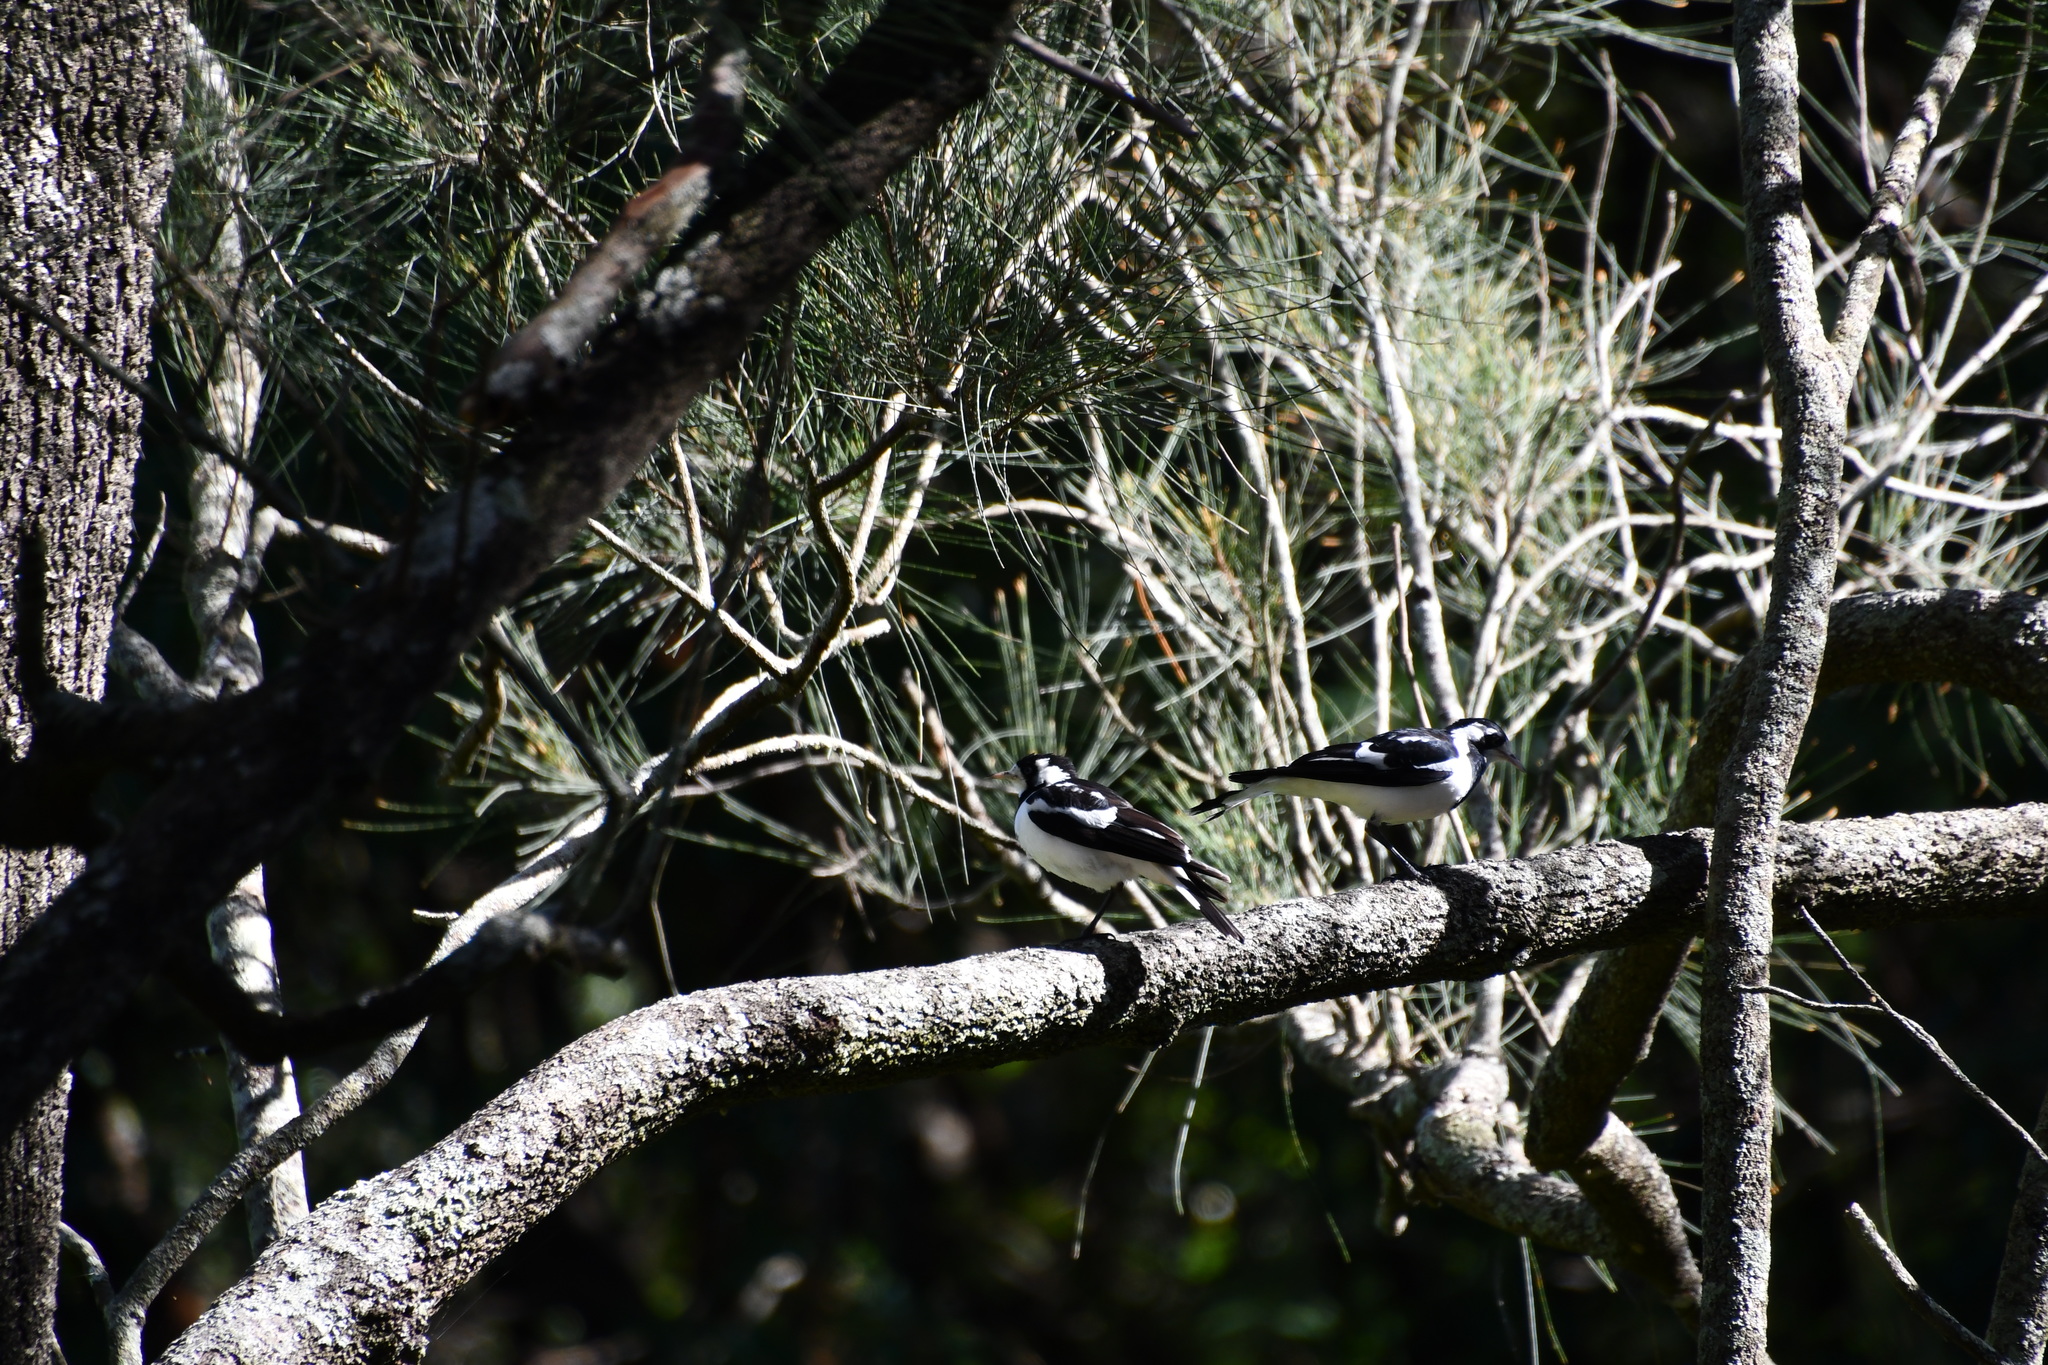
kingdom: Animalia
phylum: Chordata
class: Aves
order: Passeriformes
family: Monarchidae
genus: Grallina
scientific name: Grallina cyanoleuca
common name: Magpie-lark
